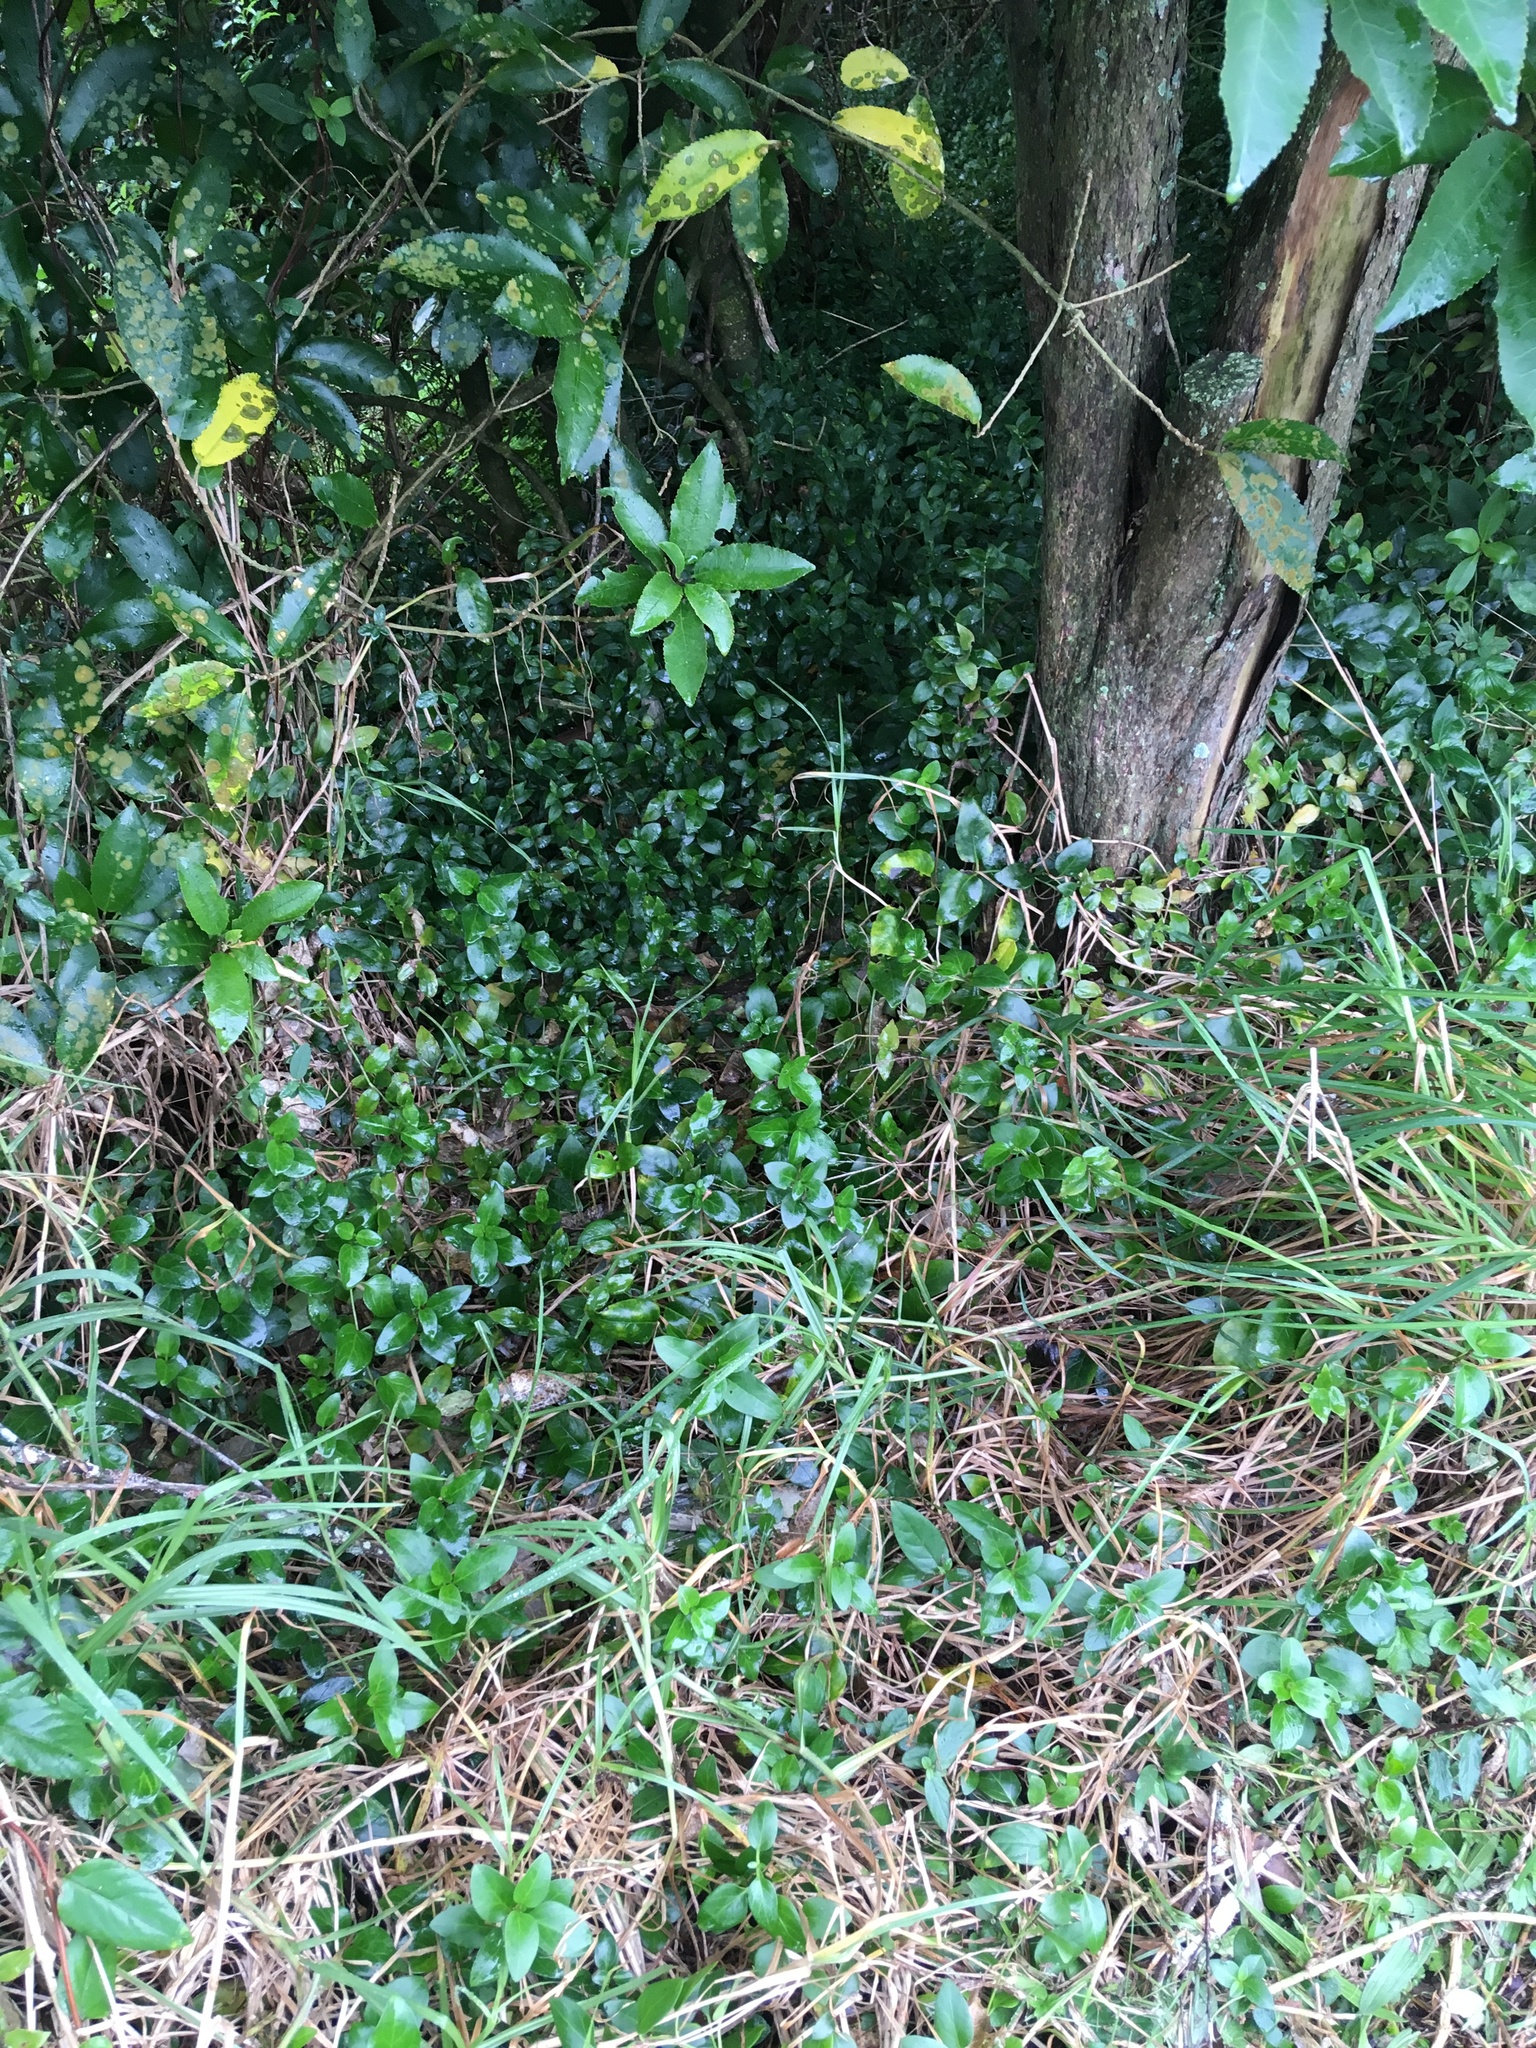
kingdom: Plantae
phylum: Tracheophyta
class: Liliopsida
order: Commelinales
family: Commelinaceae
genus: Tradescantia
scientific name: Tradescantia fluminensis
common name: Wandering-jew
